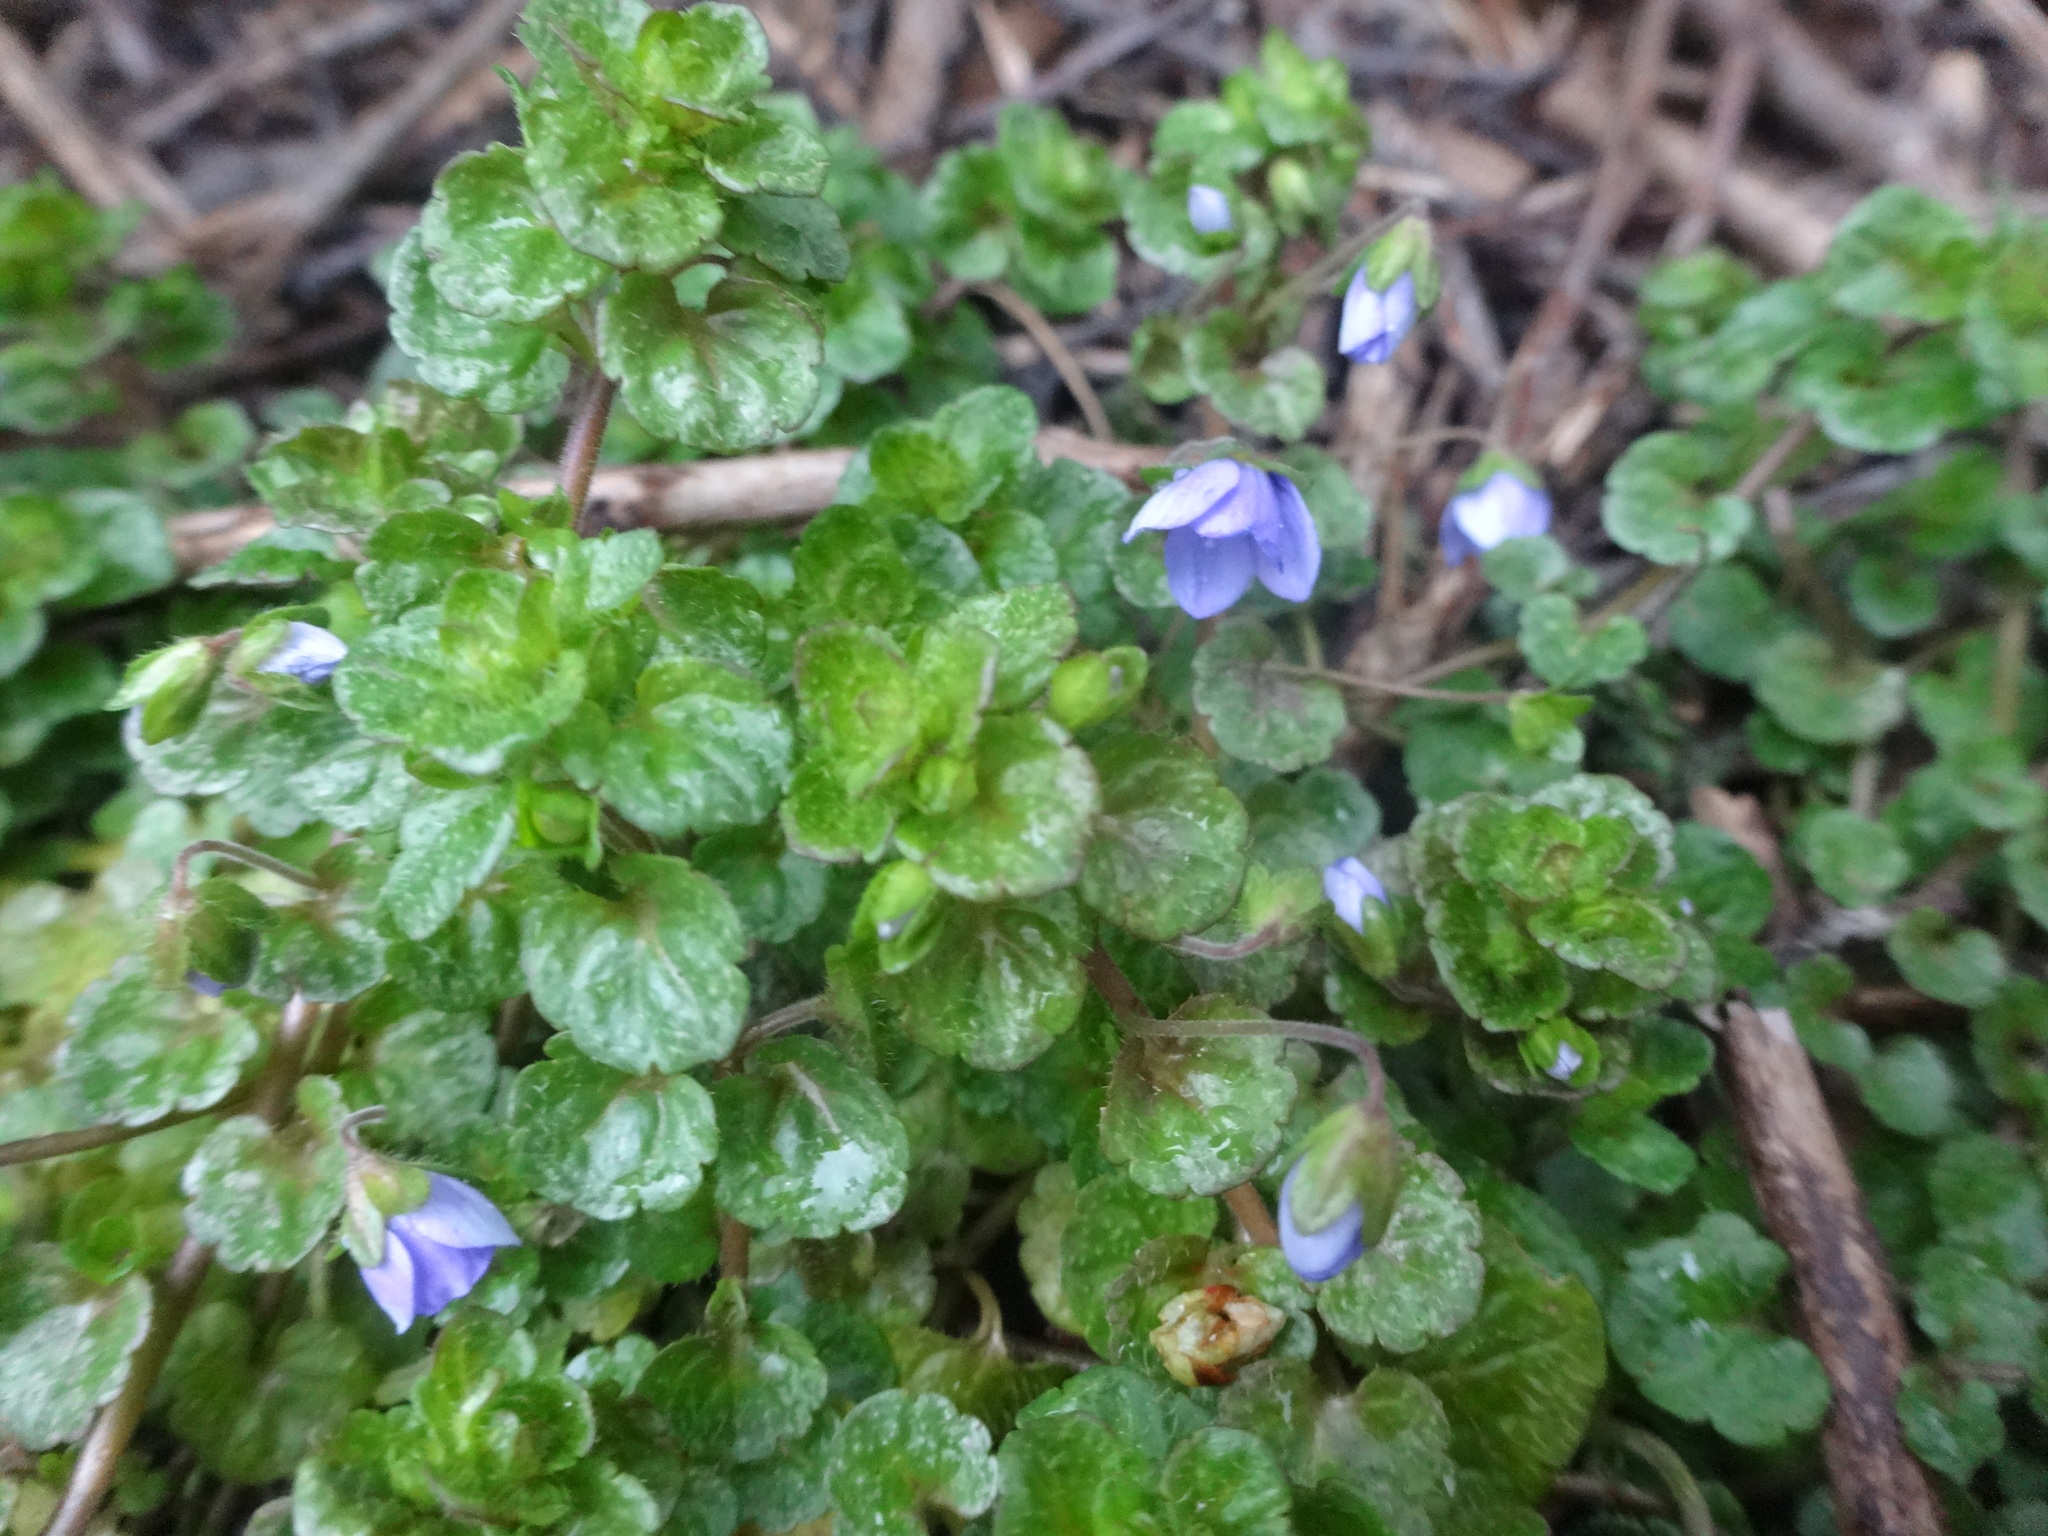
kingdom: Plantae
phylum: Tracheophyta
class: Magnoliopsida
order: Lamiales
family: Plantaginaceae
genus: Veronica
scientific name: Veronica filiformis
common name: Slender speedwell
